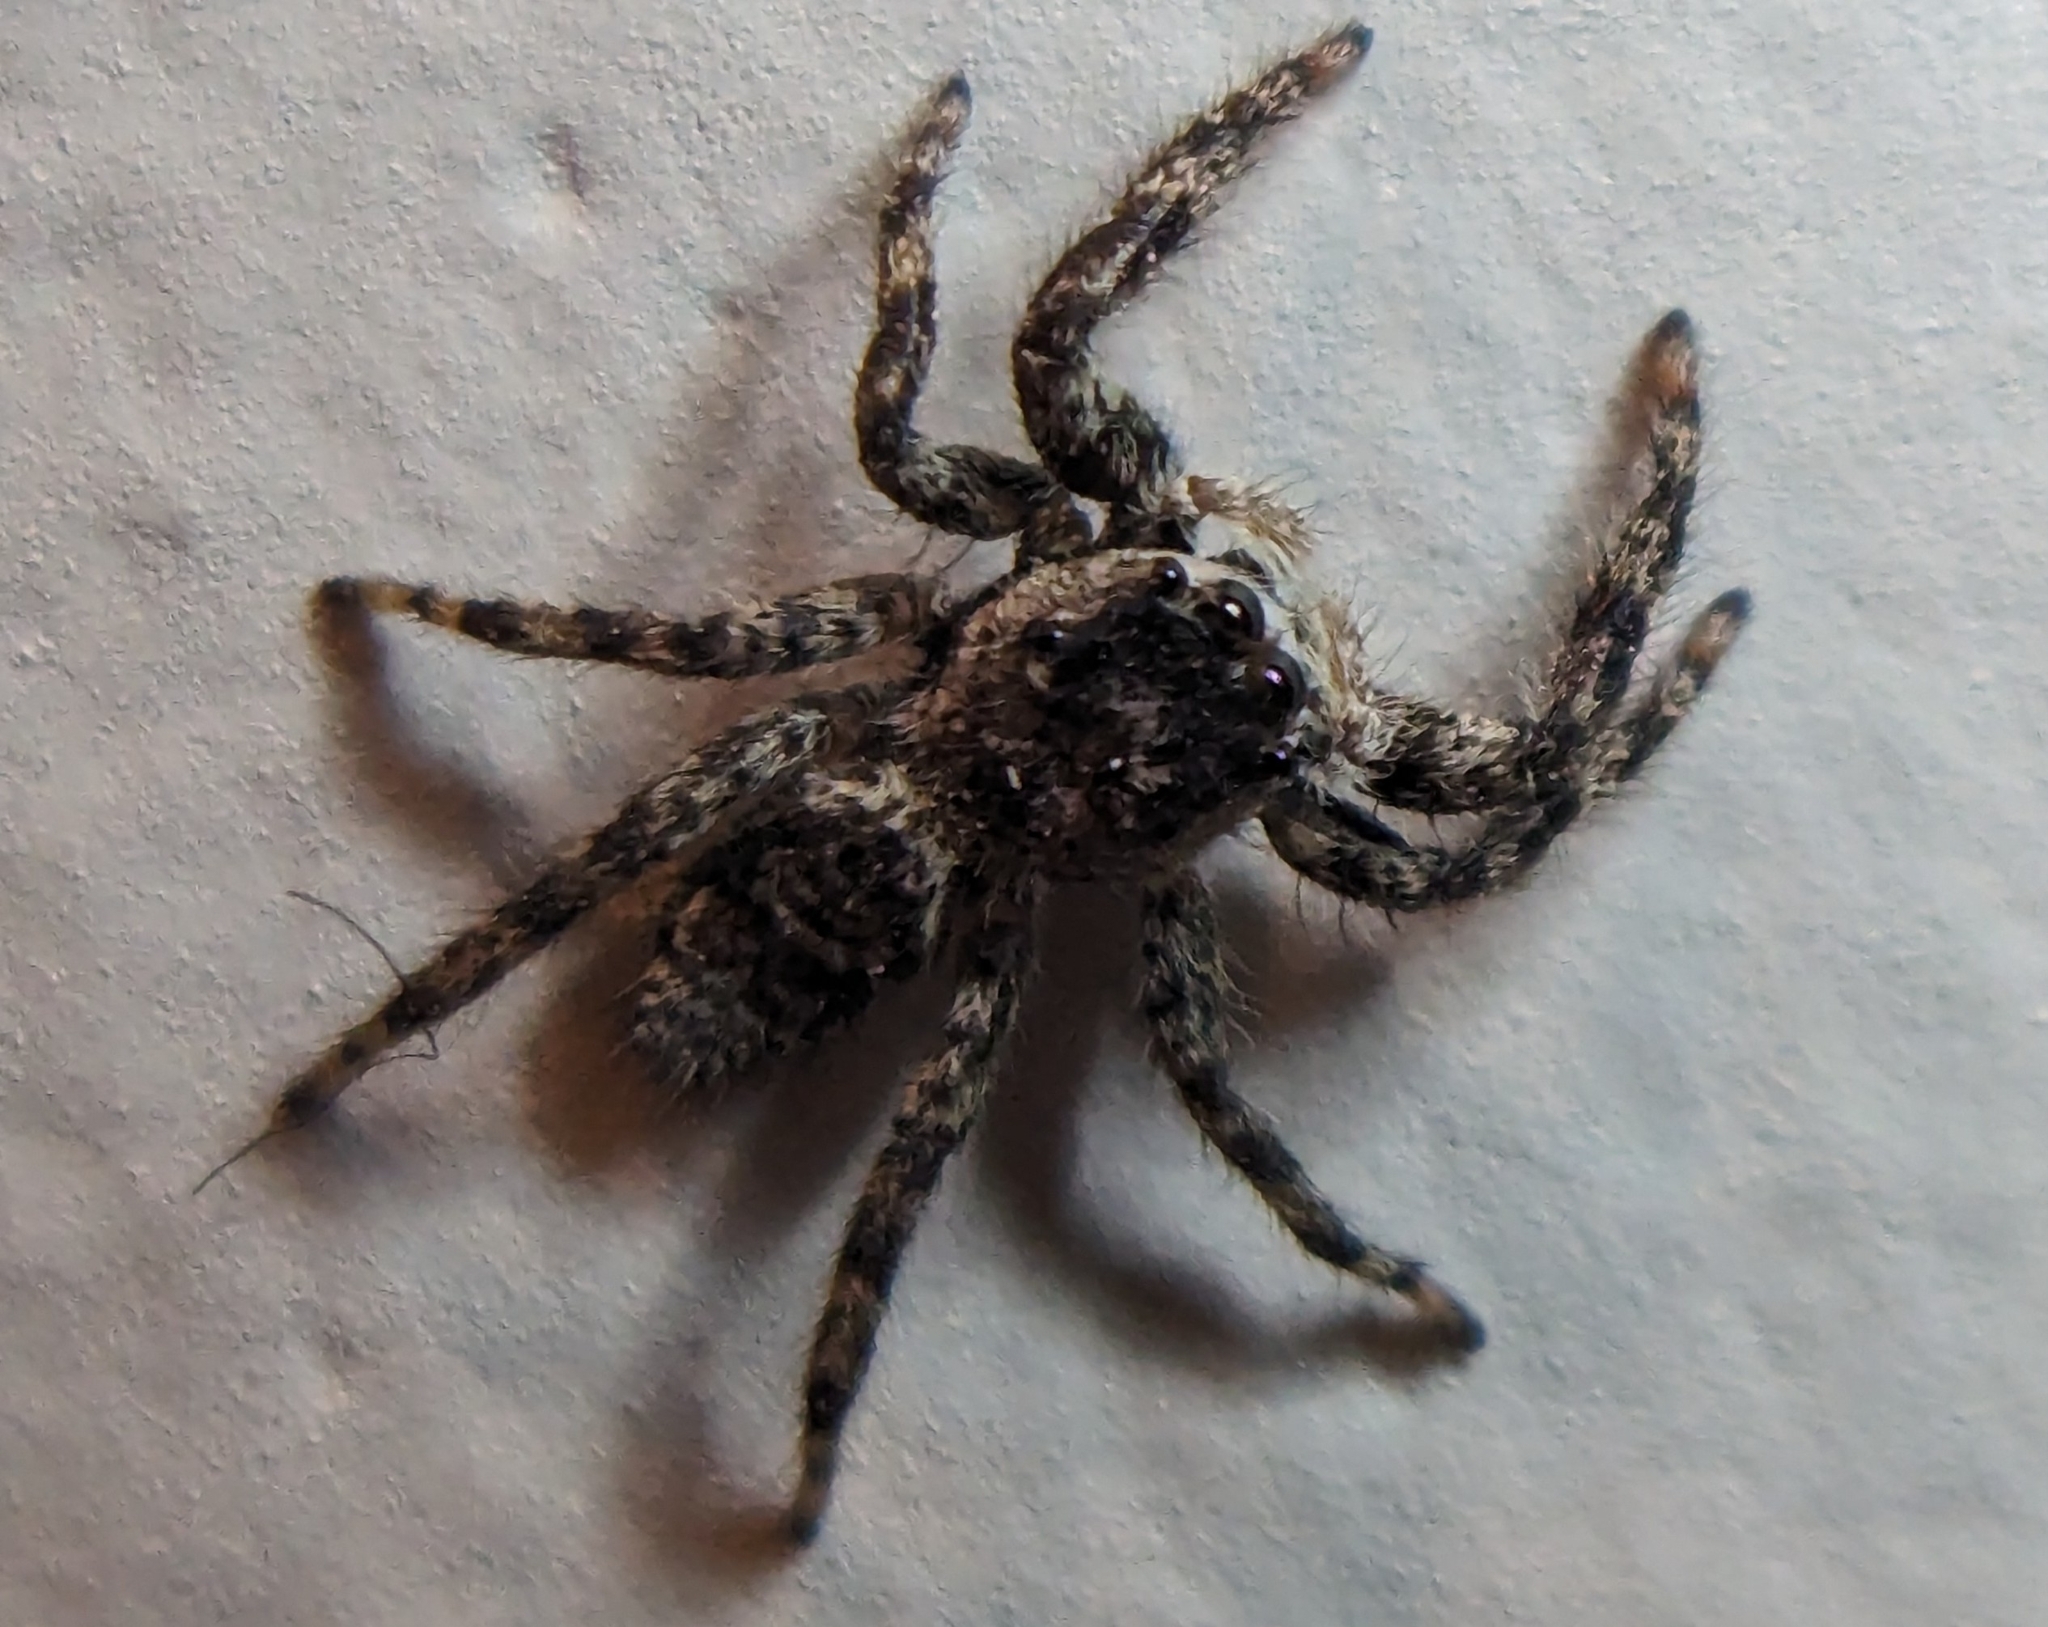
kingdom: Animalia
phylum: Arthropoda
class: Arachnida
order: Araneae
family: Salticidae
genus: Platycryptus
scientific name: Platycryptus undatus
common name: Tan jumping spider
